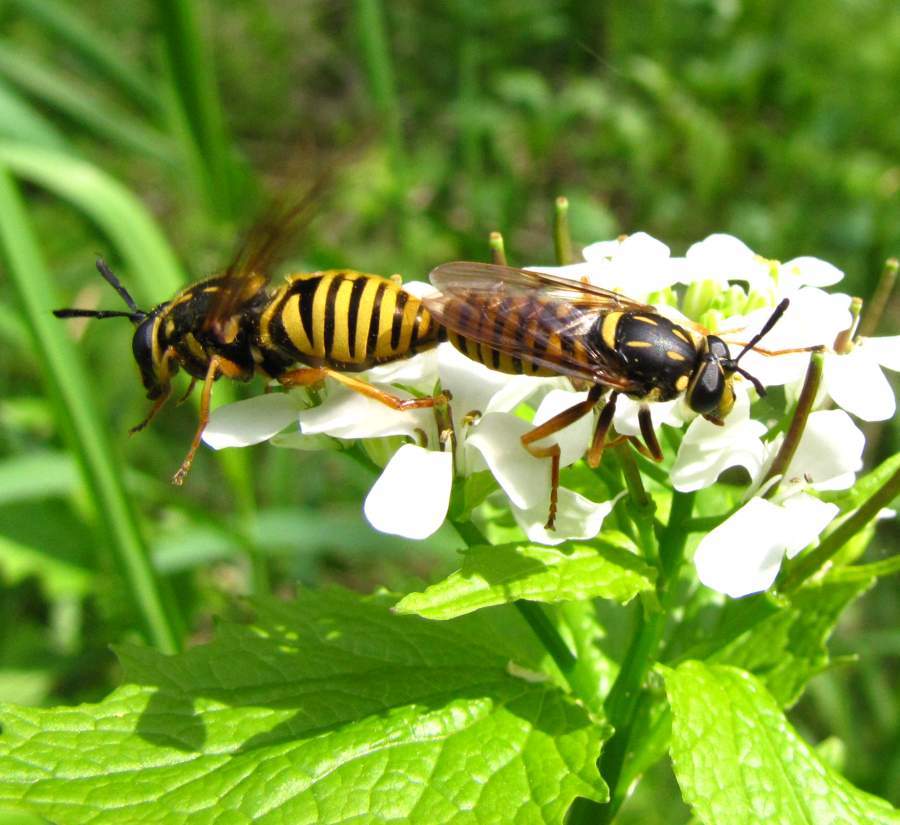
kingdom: Animalia
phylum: Arthropoda
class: Insecta
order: Diptera
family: Syrphidae
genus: Sphecomyia
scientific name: Sphecomyia vittata
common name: Long-horned yellowjacket fly
